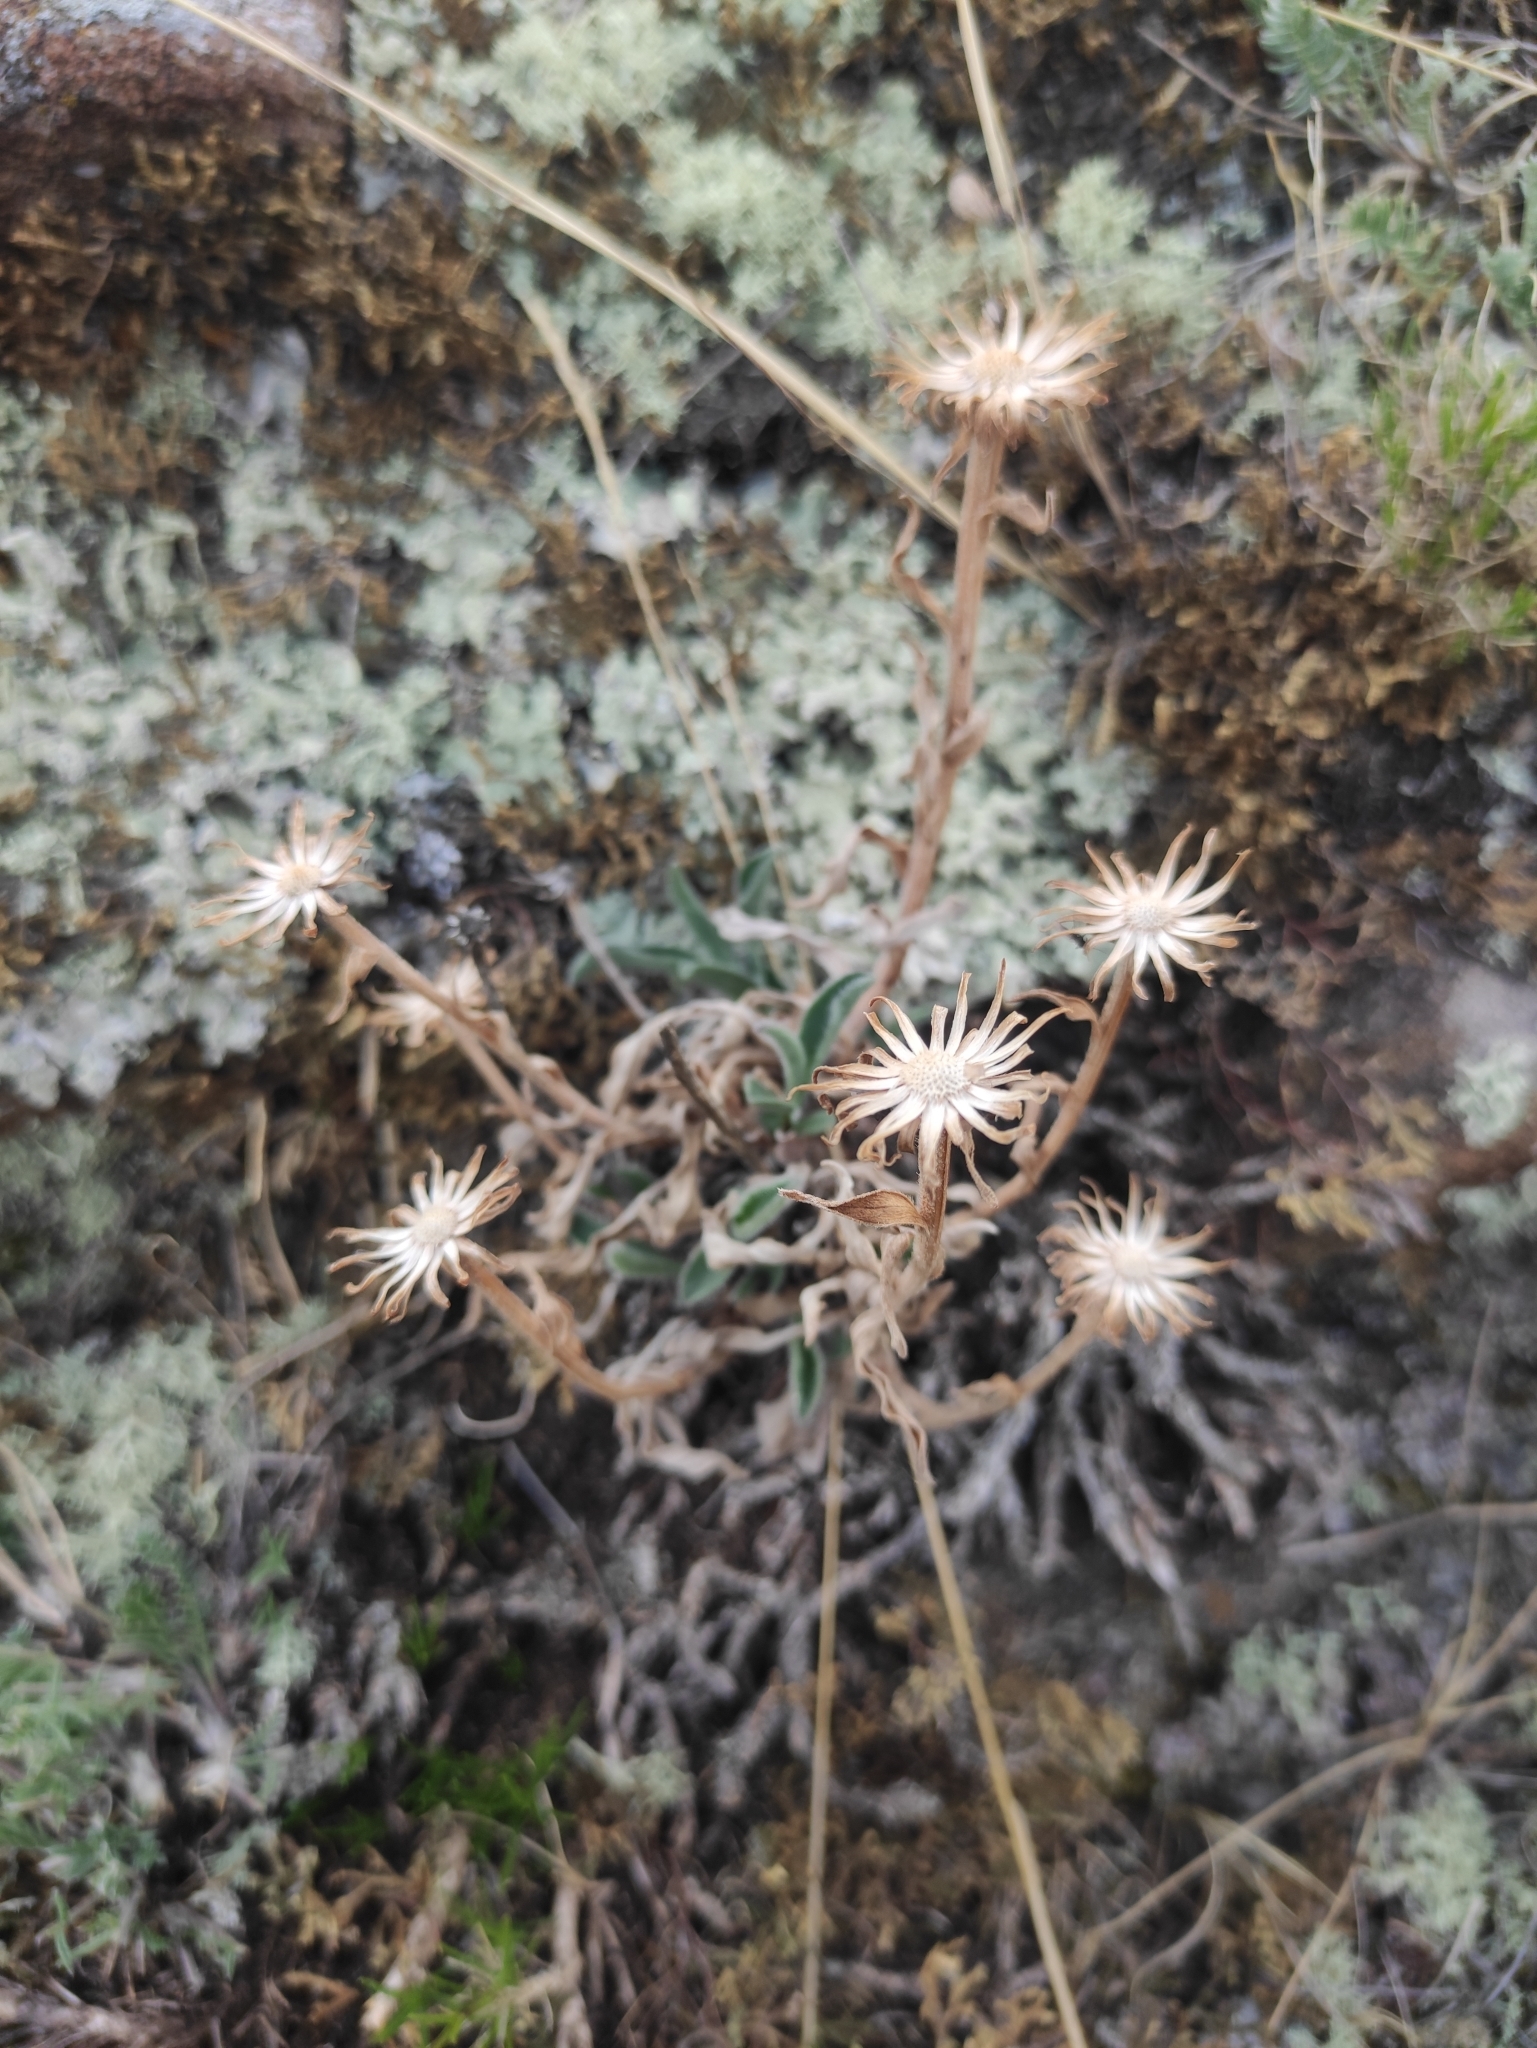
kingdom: Plantae
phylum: Tracheophyta
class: Magnoliopsida
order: Asterales
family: Asteraceae
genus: Aster
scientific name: Aster alpinus
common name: Alpine aster
